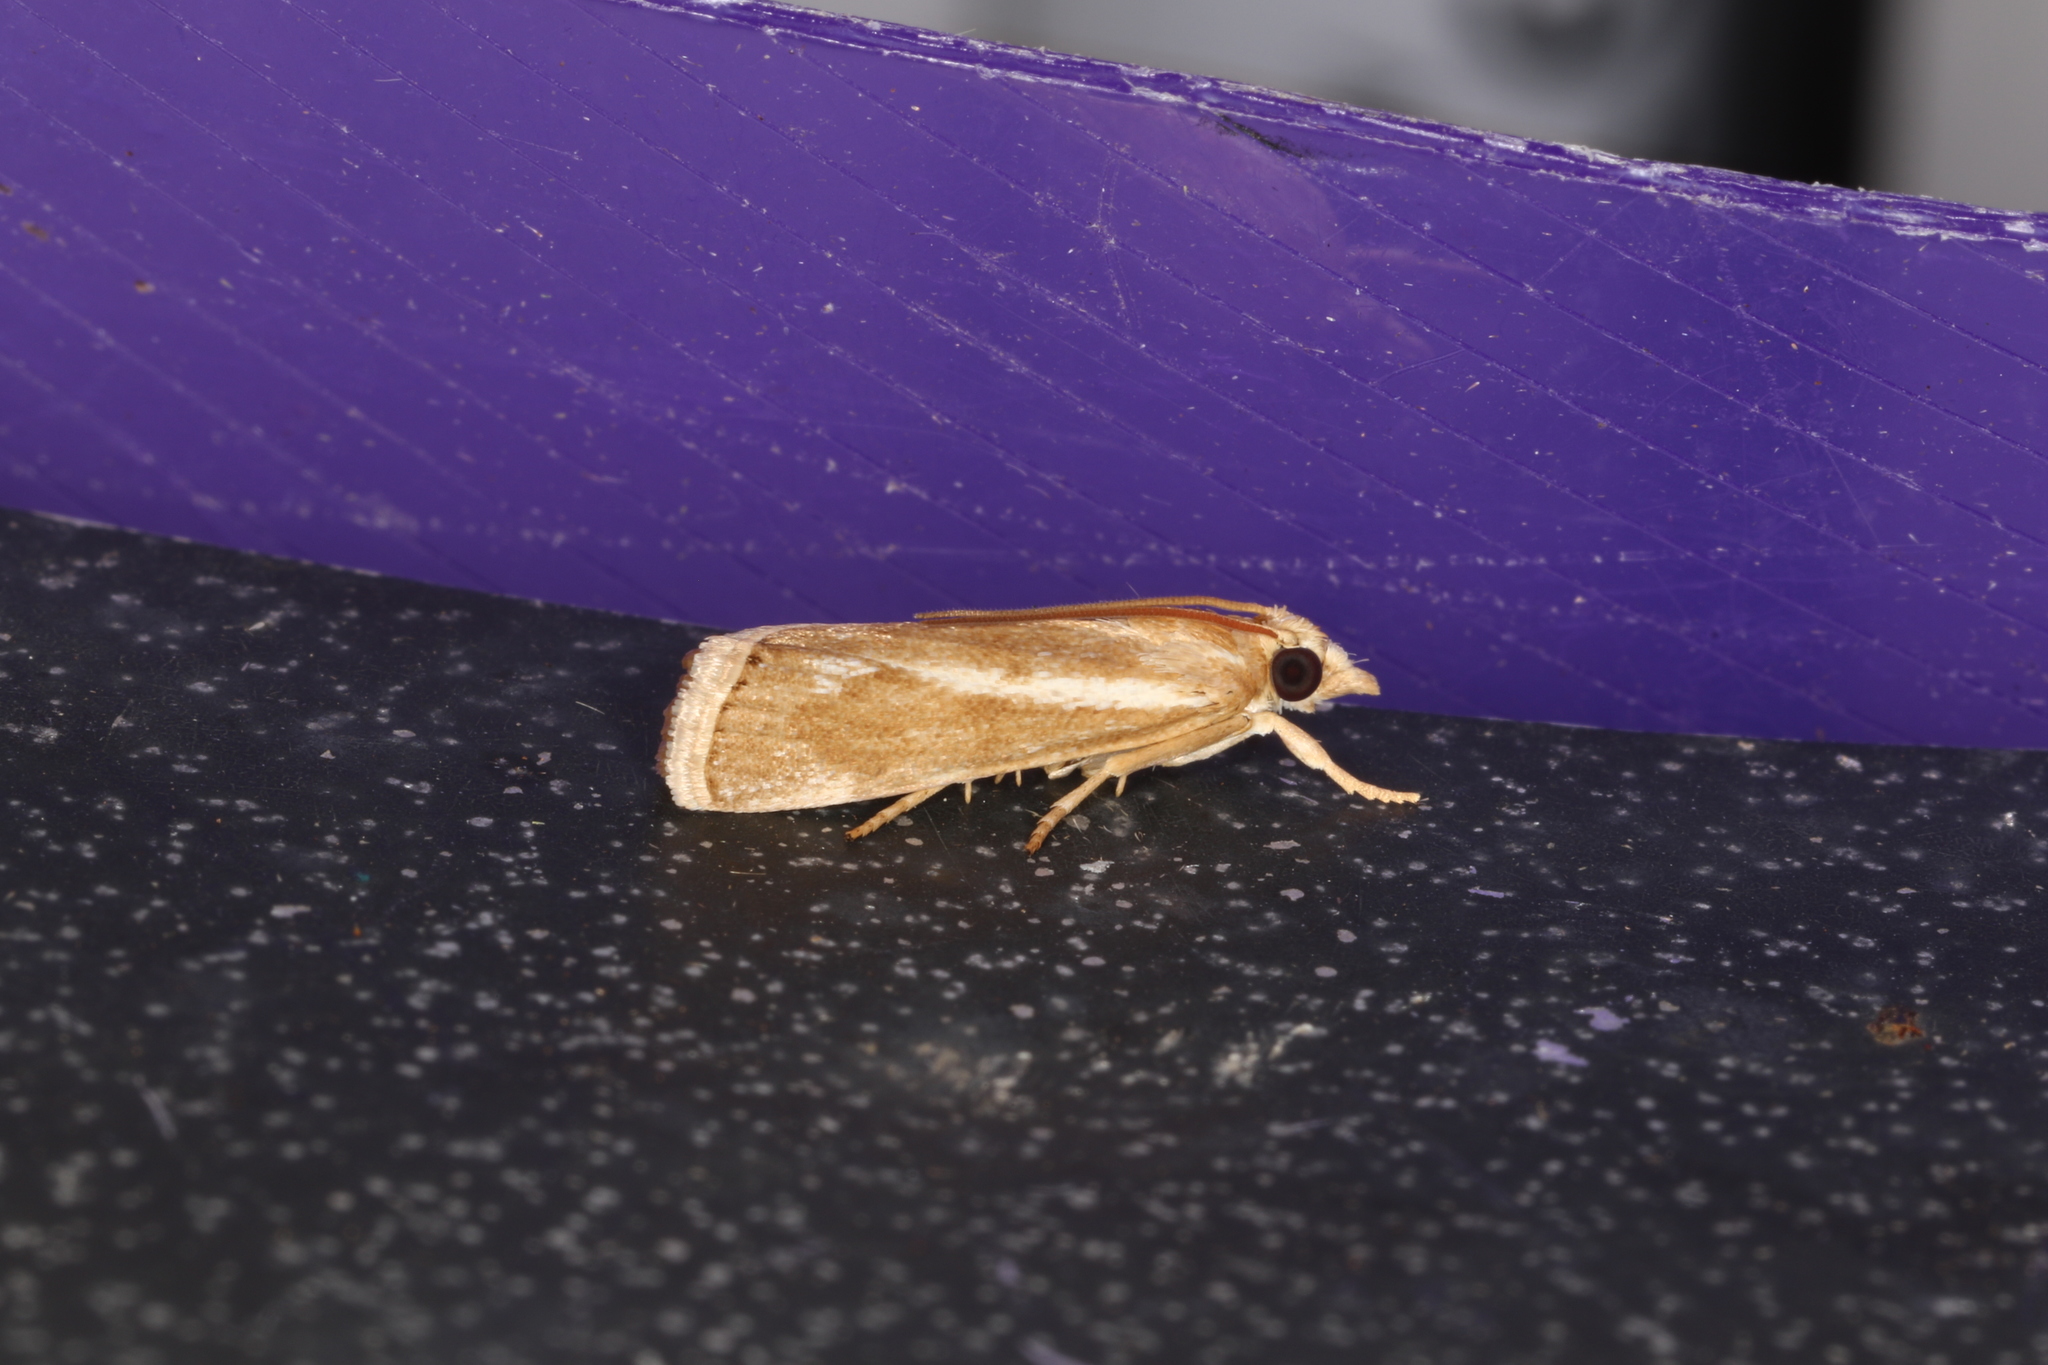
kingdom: Animalia
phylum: Arthropoda
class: Insecta
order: Lepidoptera
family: Crambidae
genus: Conocrambus
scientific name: Conocrambus medioradiellus
